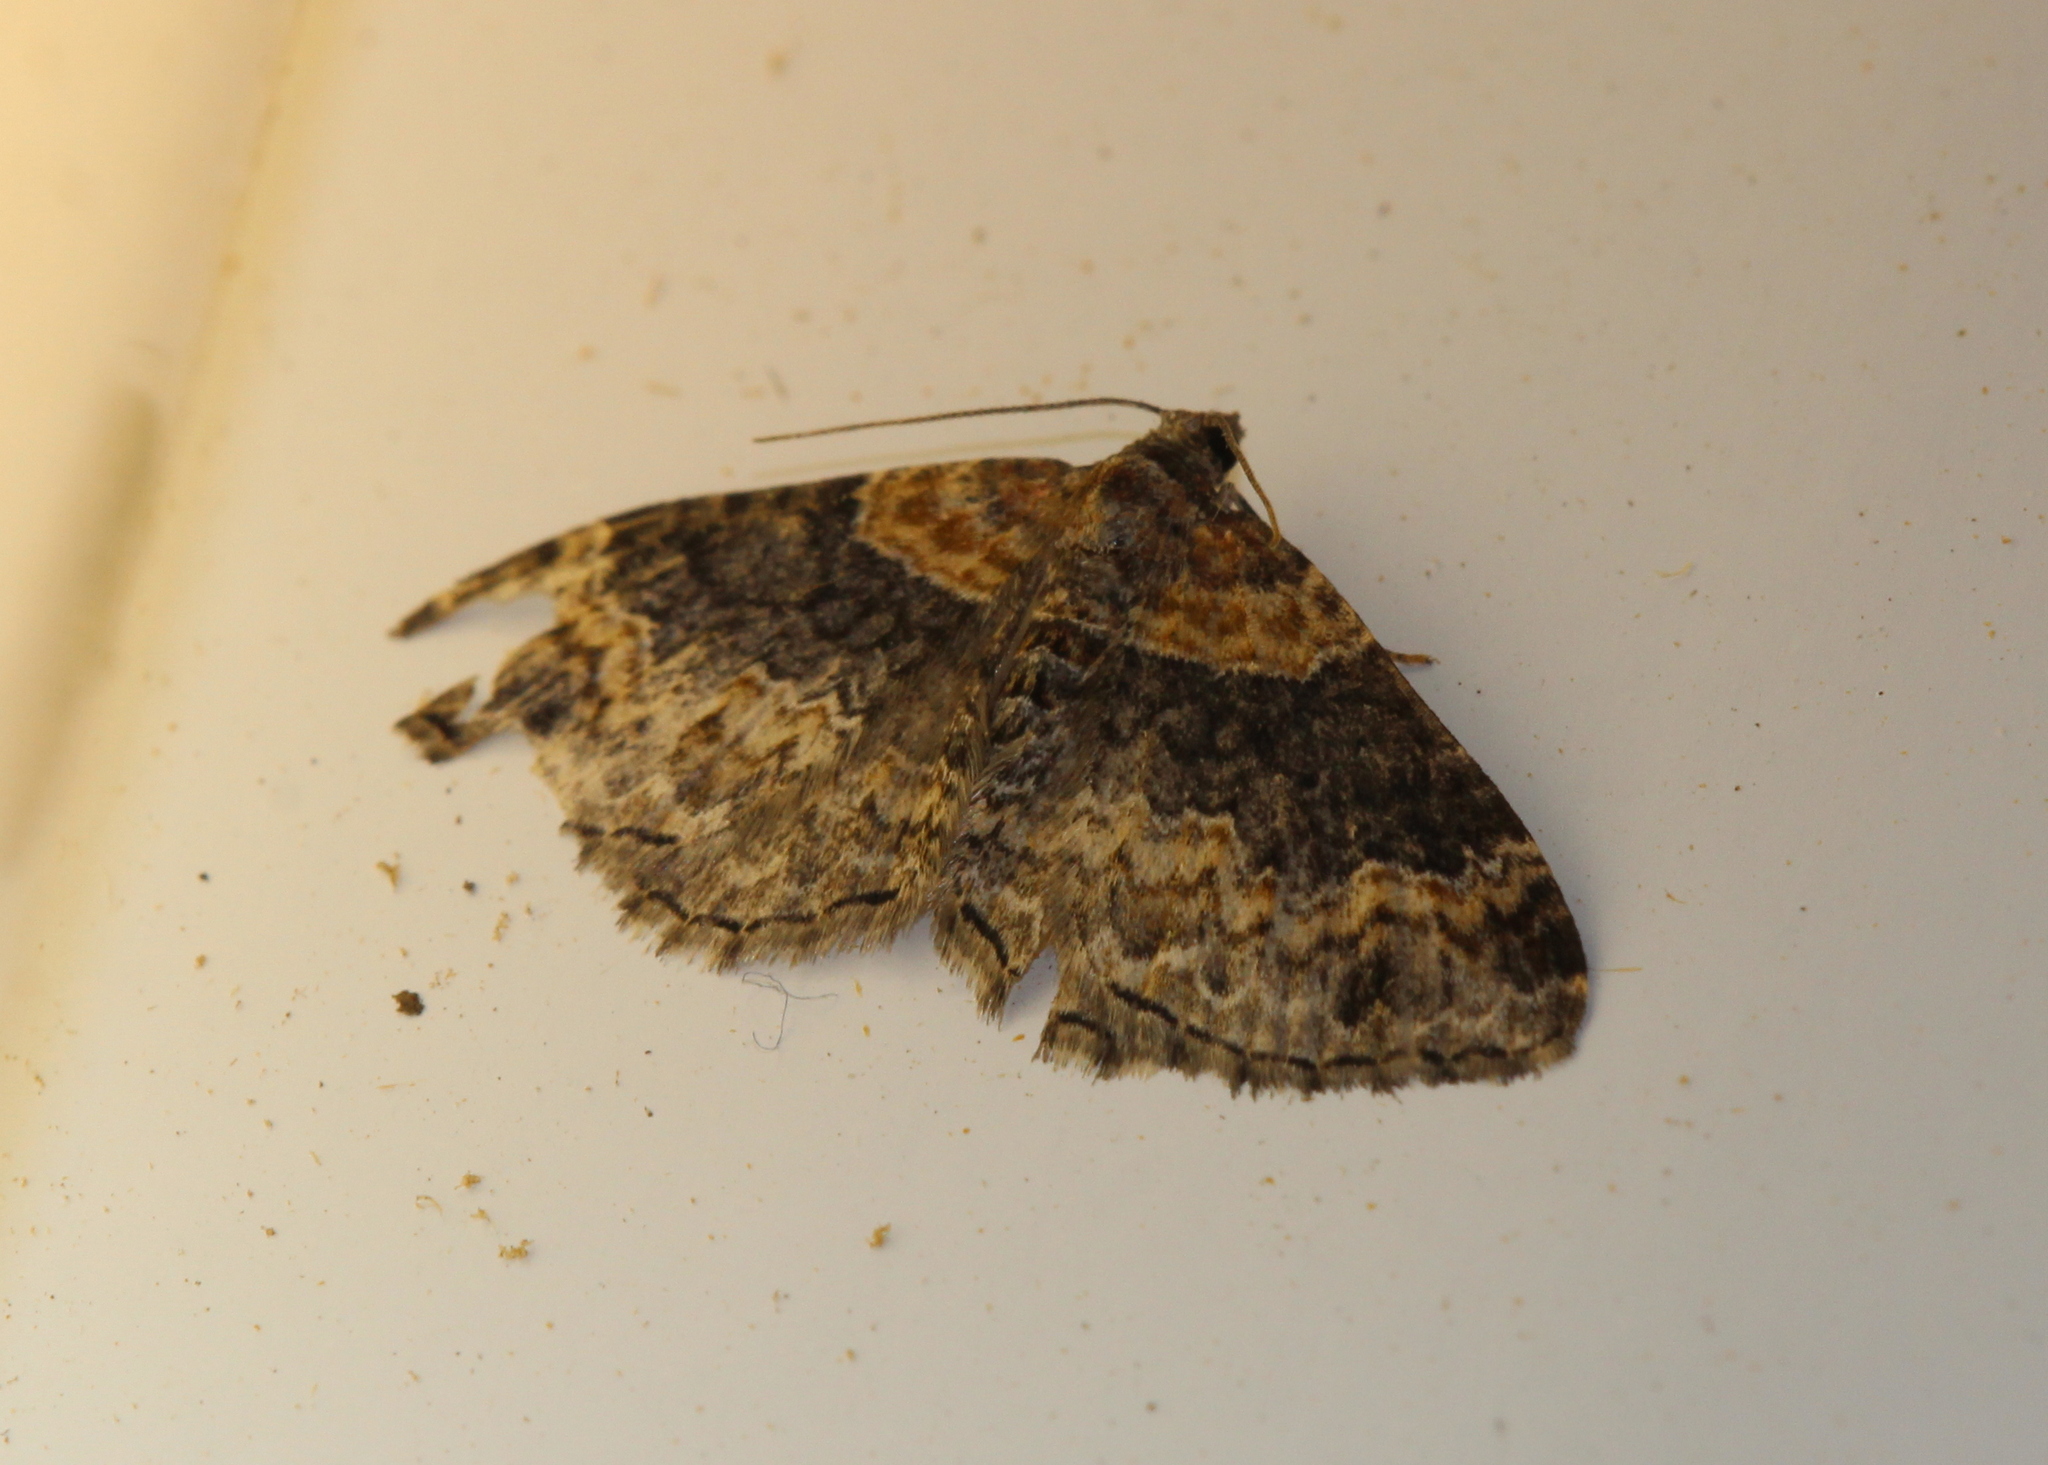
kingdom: Animalia
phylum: Arthropoda
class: Insecta
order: Lepidoptera
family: Geometridae
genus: Xanthorhoe
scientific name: Xanthorhoe ferrugata
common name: Dark-barred twin-spot carpet
